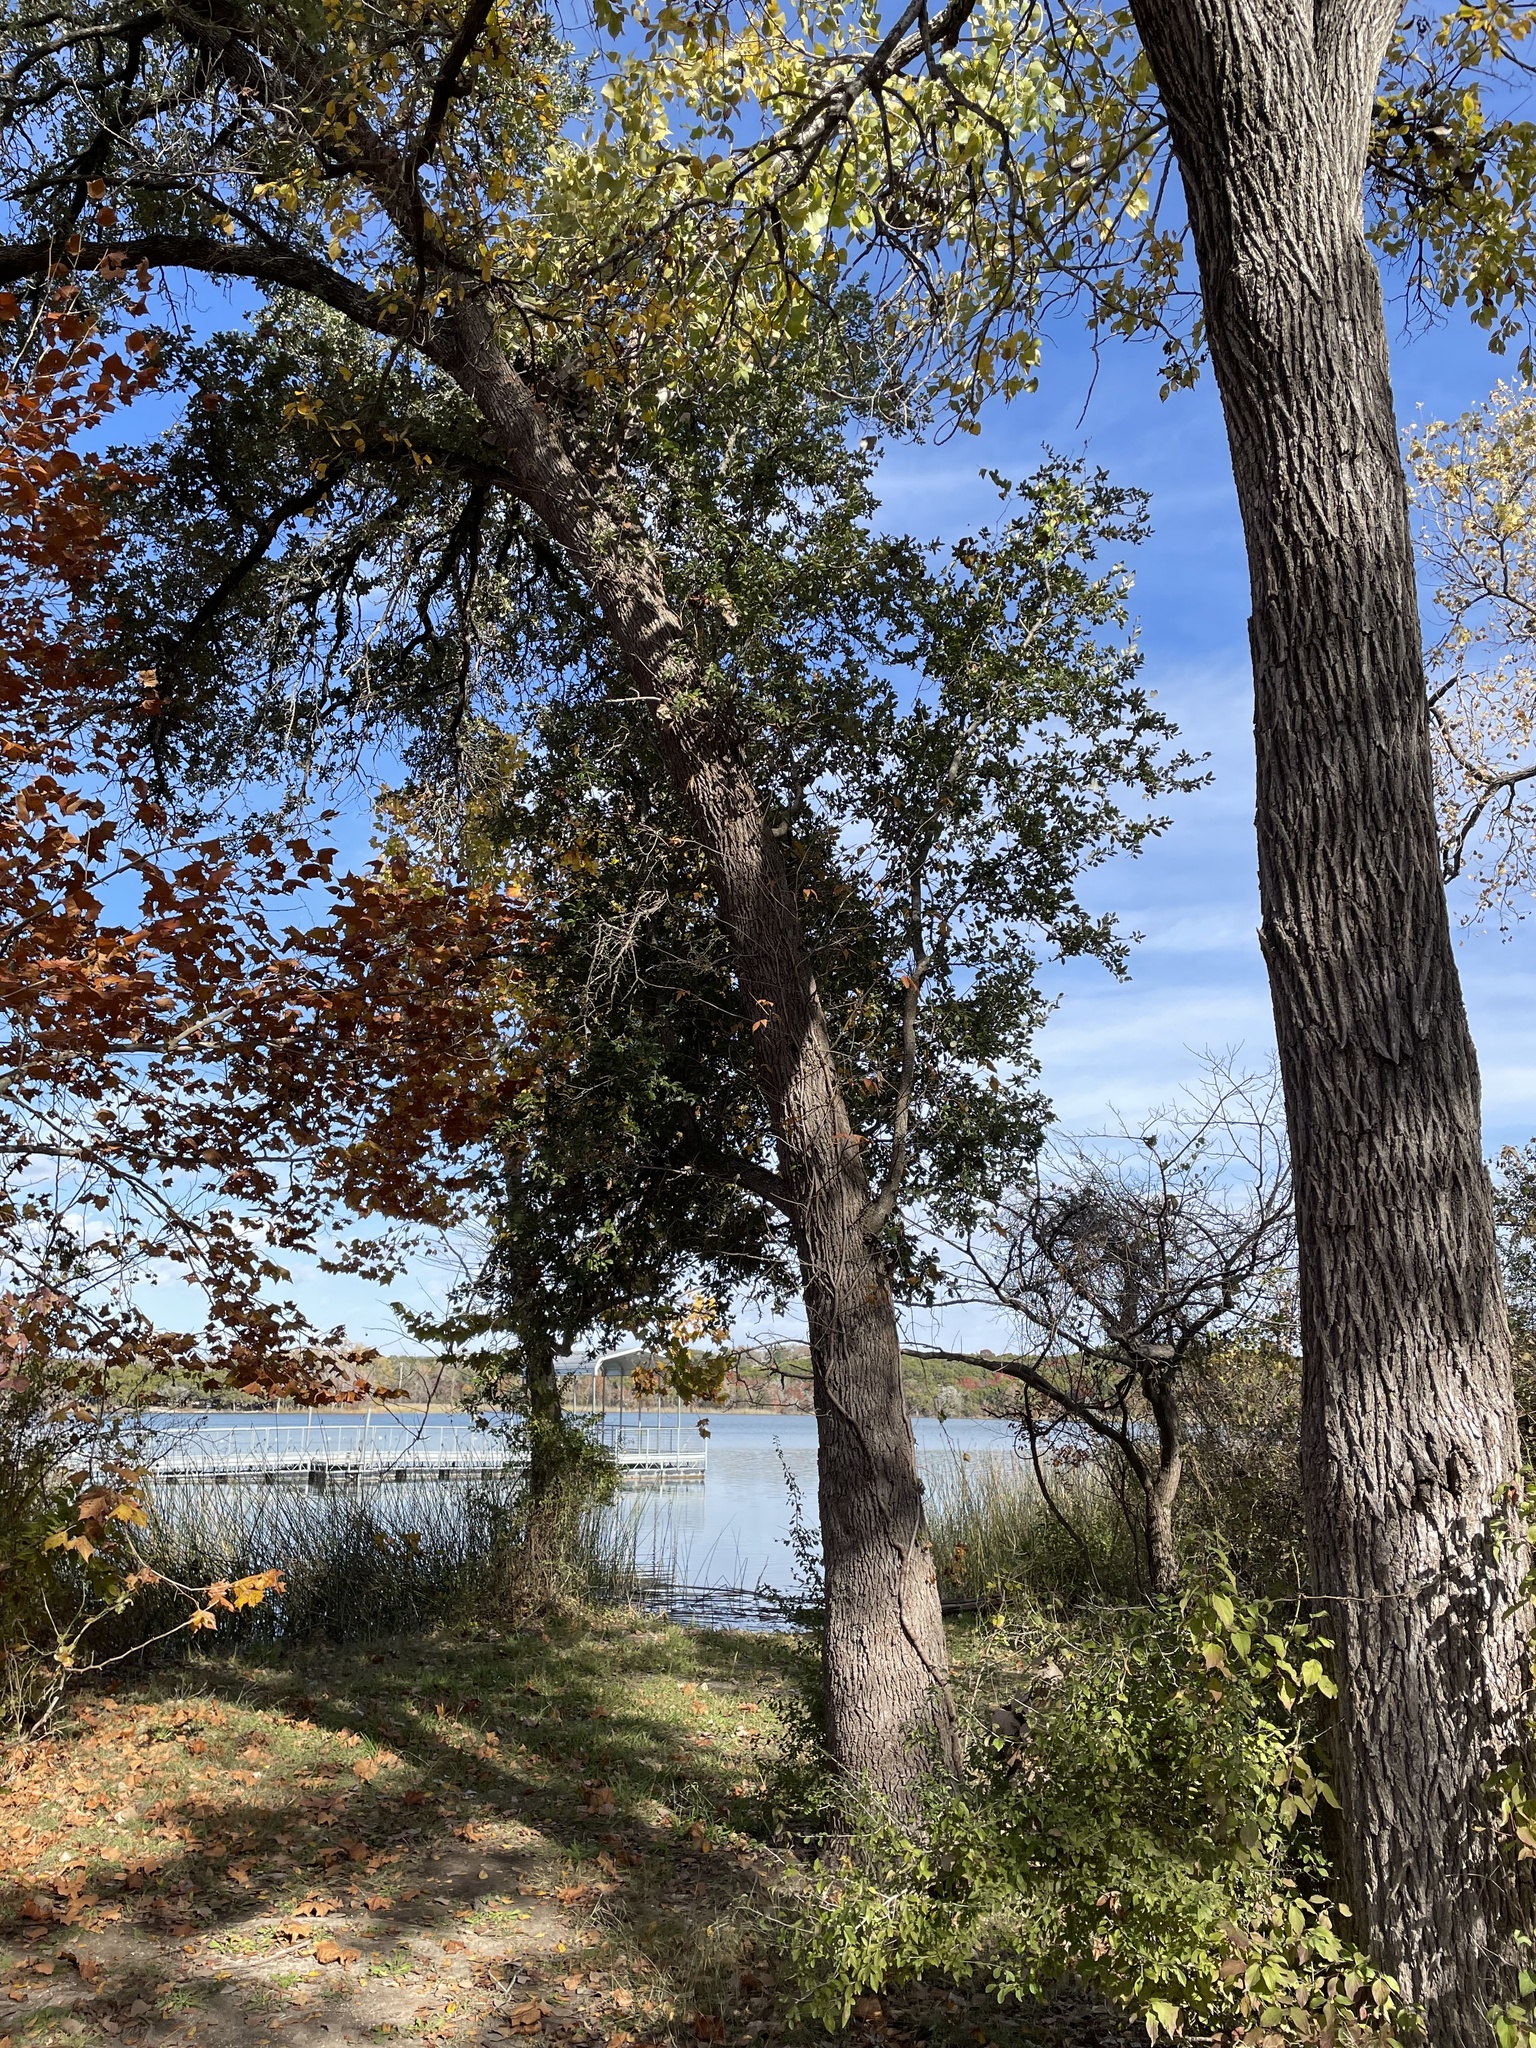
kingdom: Plantae
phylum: Tracheophyta
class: Magnoliopsida
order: Fagales
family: Fagaceae
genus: Quercus
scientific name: Quercus fusiformis
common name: Texas live oak
